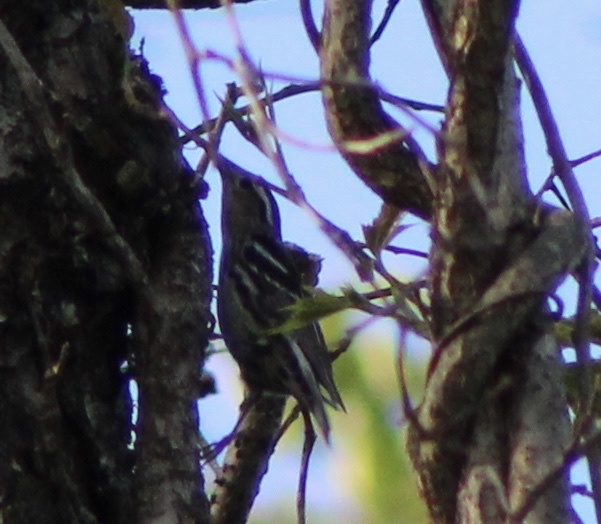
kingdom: Animalia
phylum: Chordata
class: Aves
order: Passeriformes
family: Parulidae
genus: Mniotilta
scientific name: Mniotilta varia
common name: Black-and-white warbler
